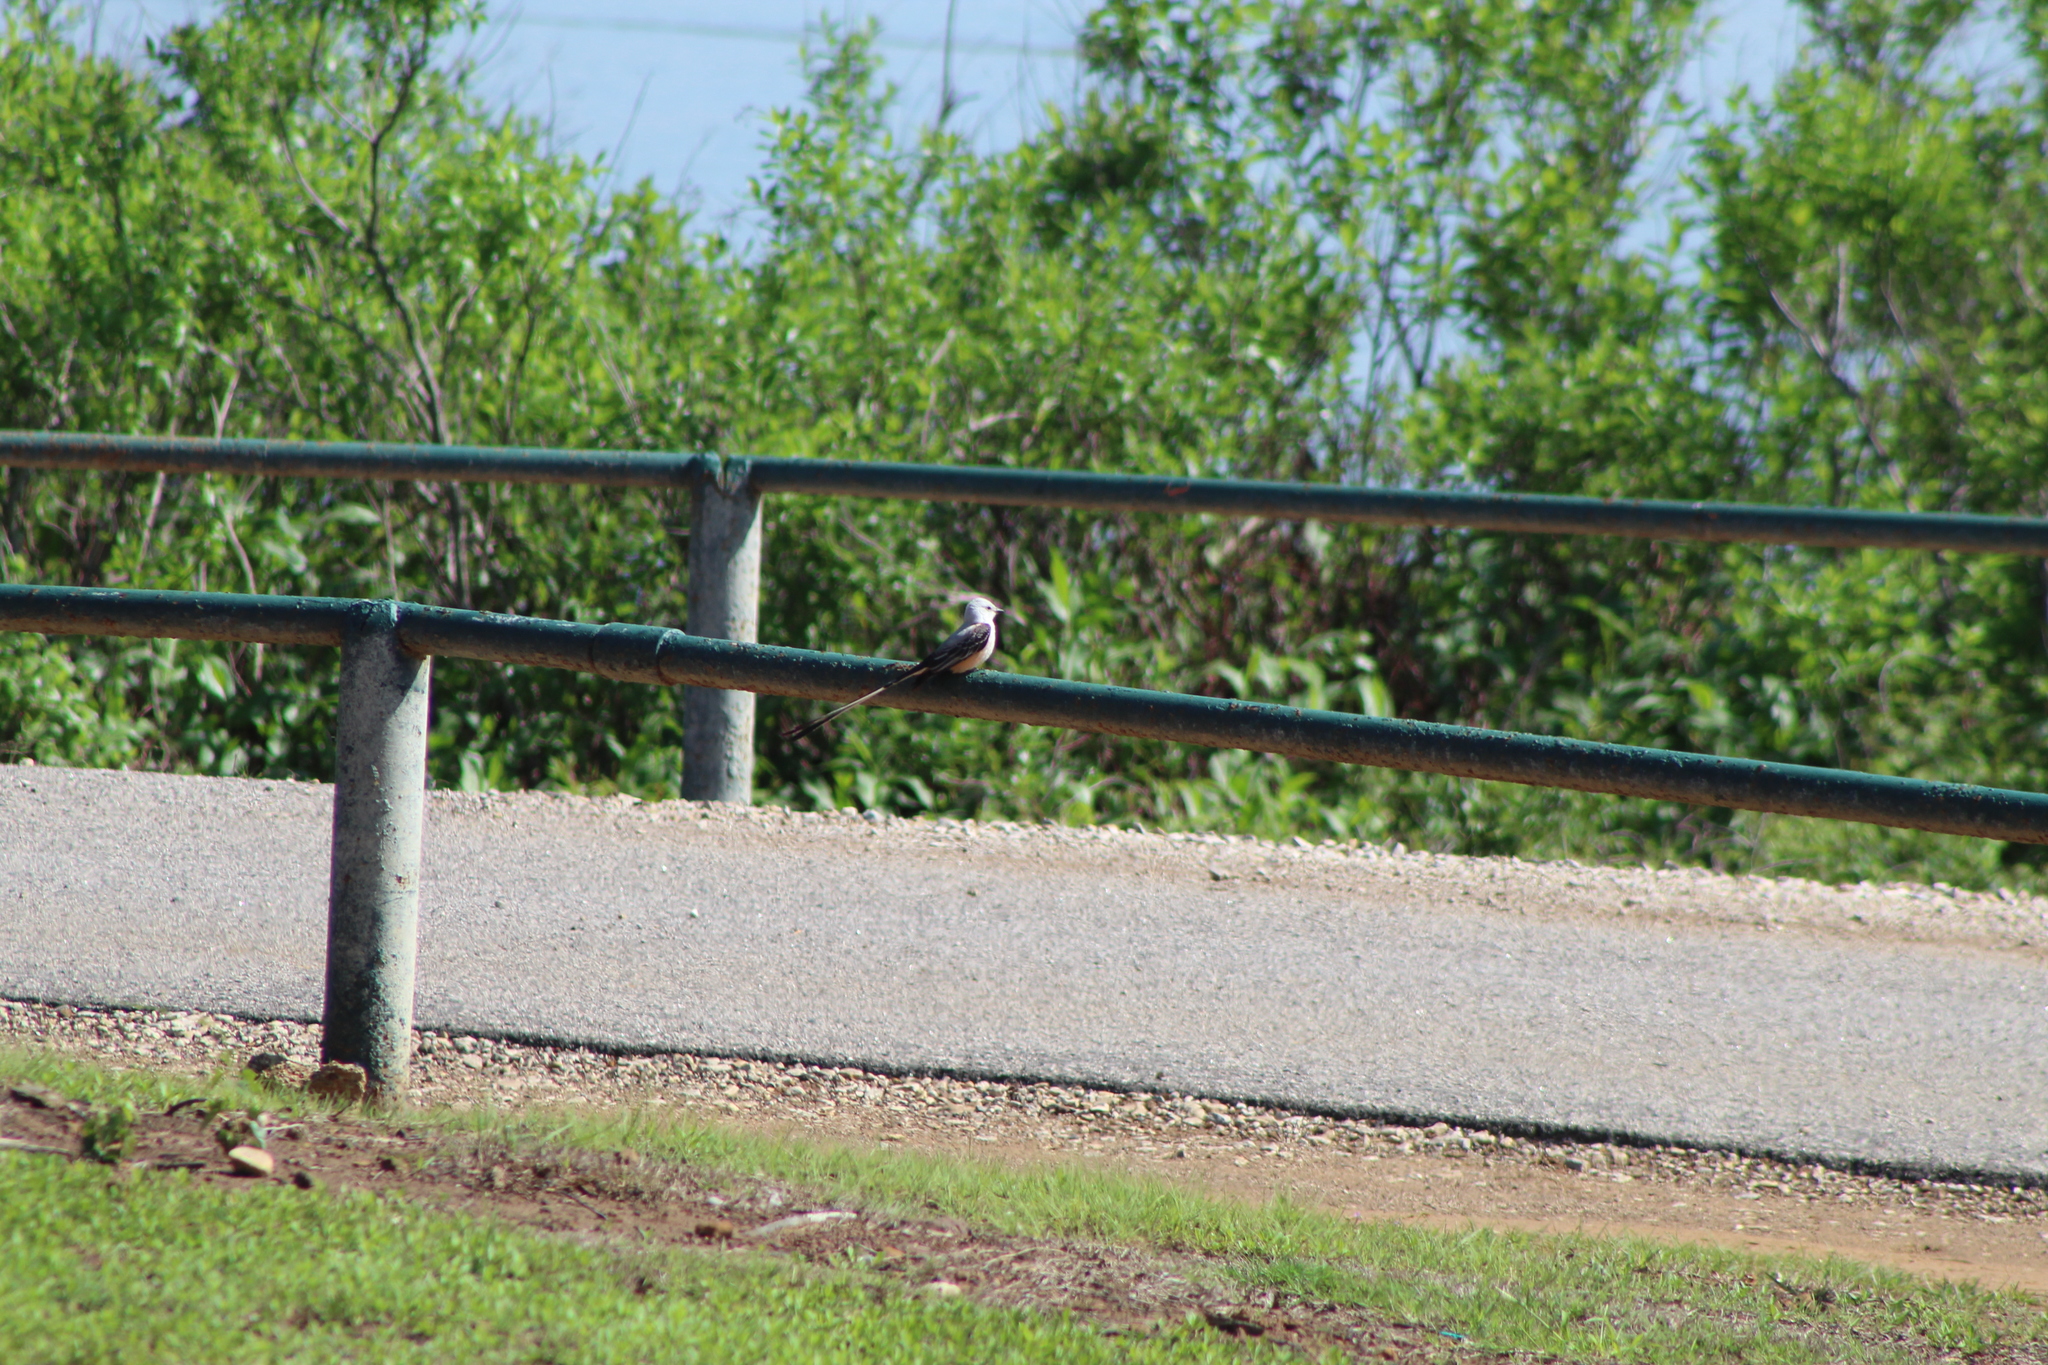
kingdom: Animalia
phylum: Chordata
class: Aves
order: Passeriformes
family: Tyrannidae
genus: Tyrannus
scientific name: Tyrannus forficatus
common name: Scissor-tailed flycatcher
